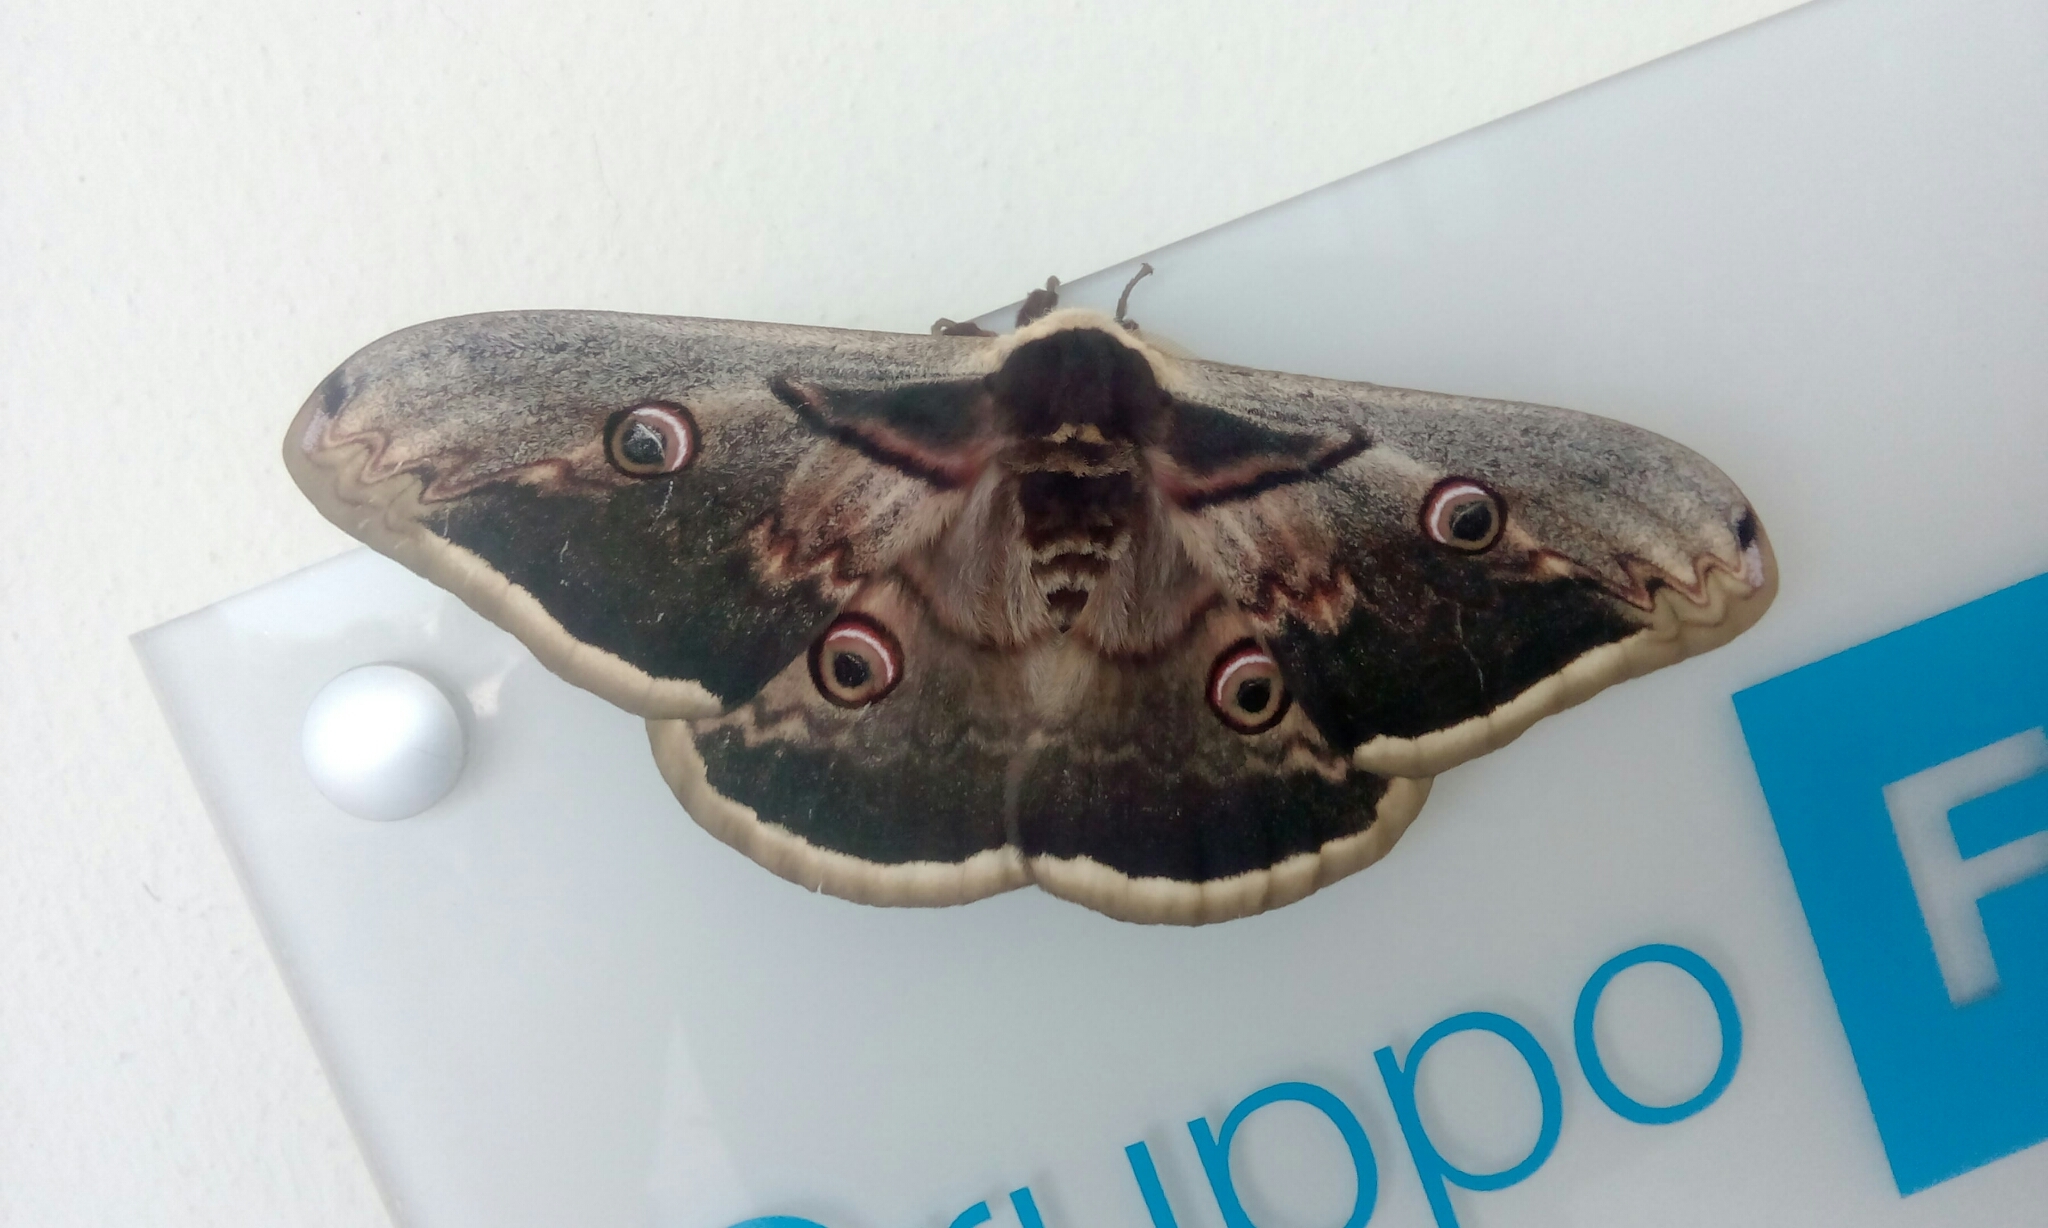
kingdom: Animalia
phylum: Arthropoda
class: Insecta
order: Lepidoptera
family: Saturniidae
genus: Saturnia
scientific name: Saturnia pyri
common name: Great peacock moth
